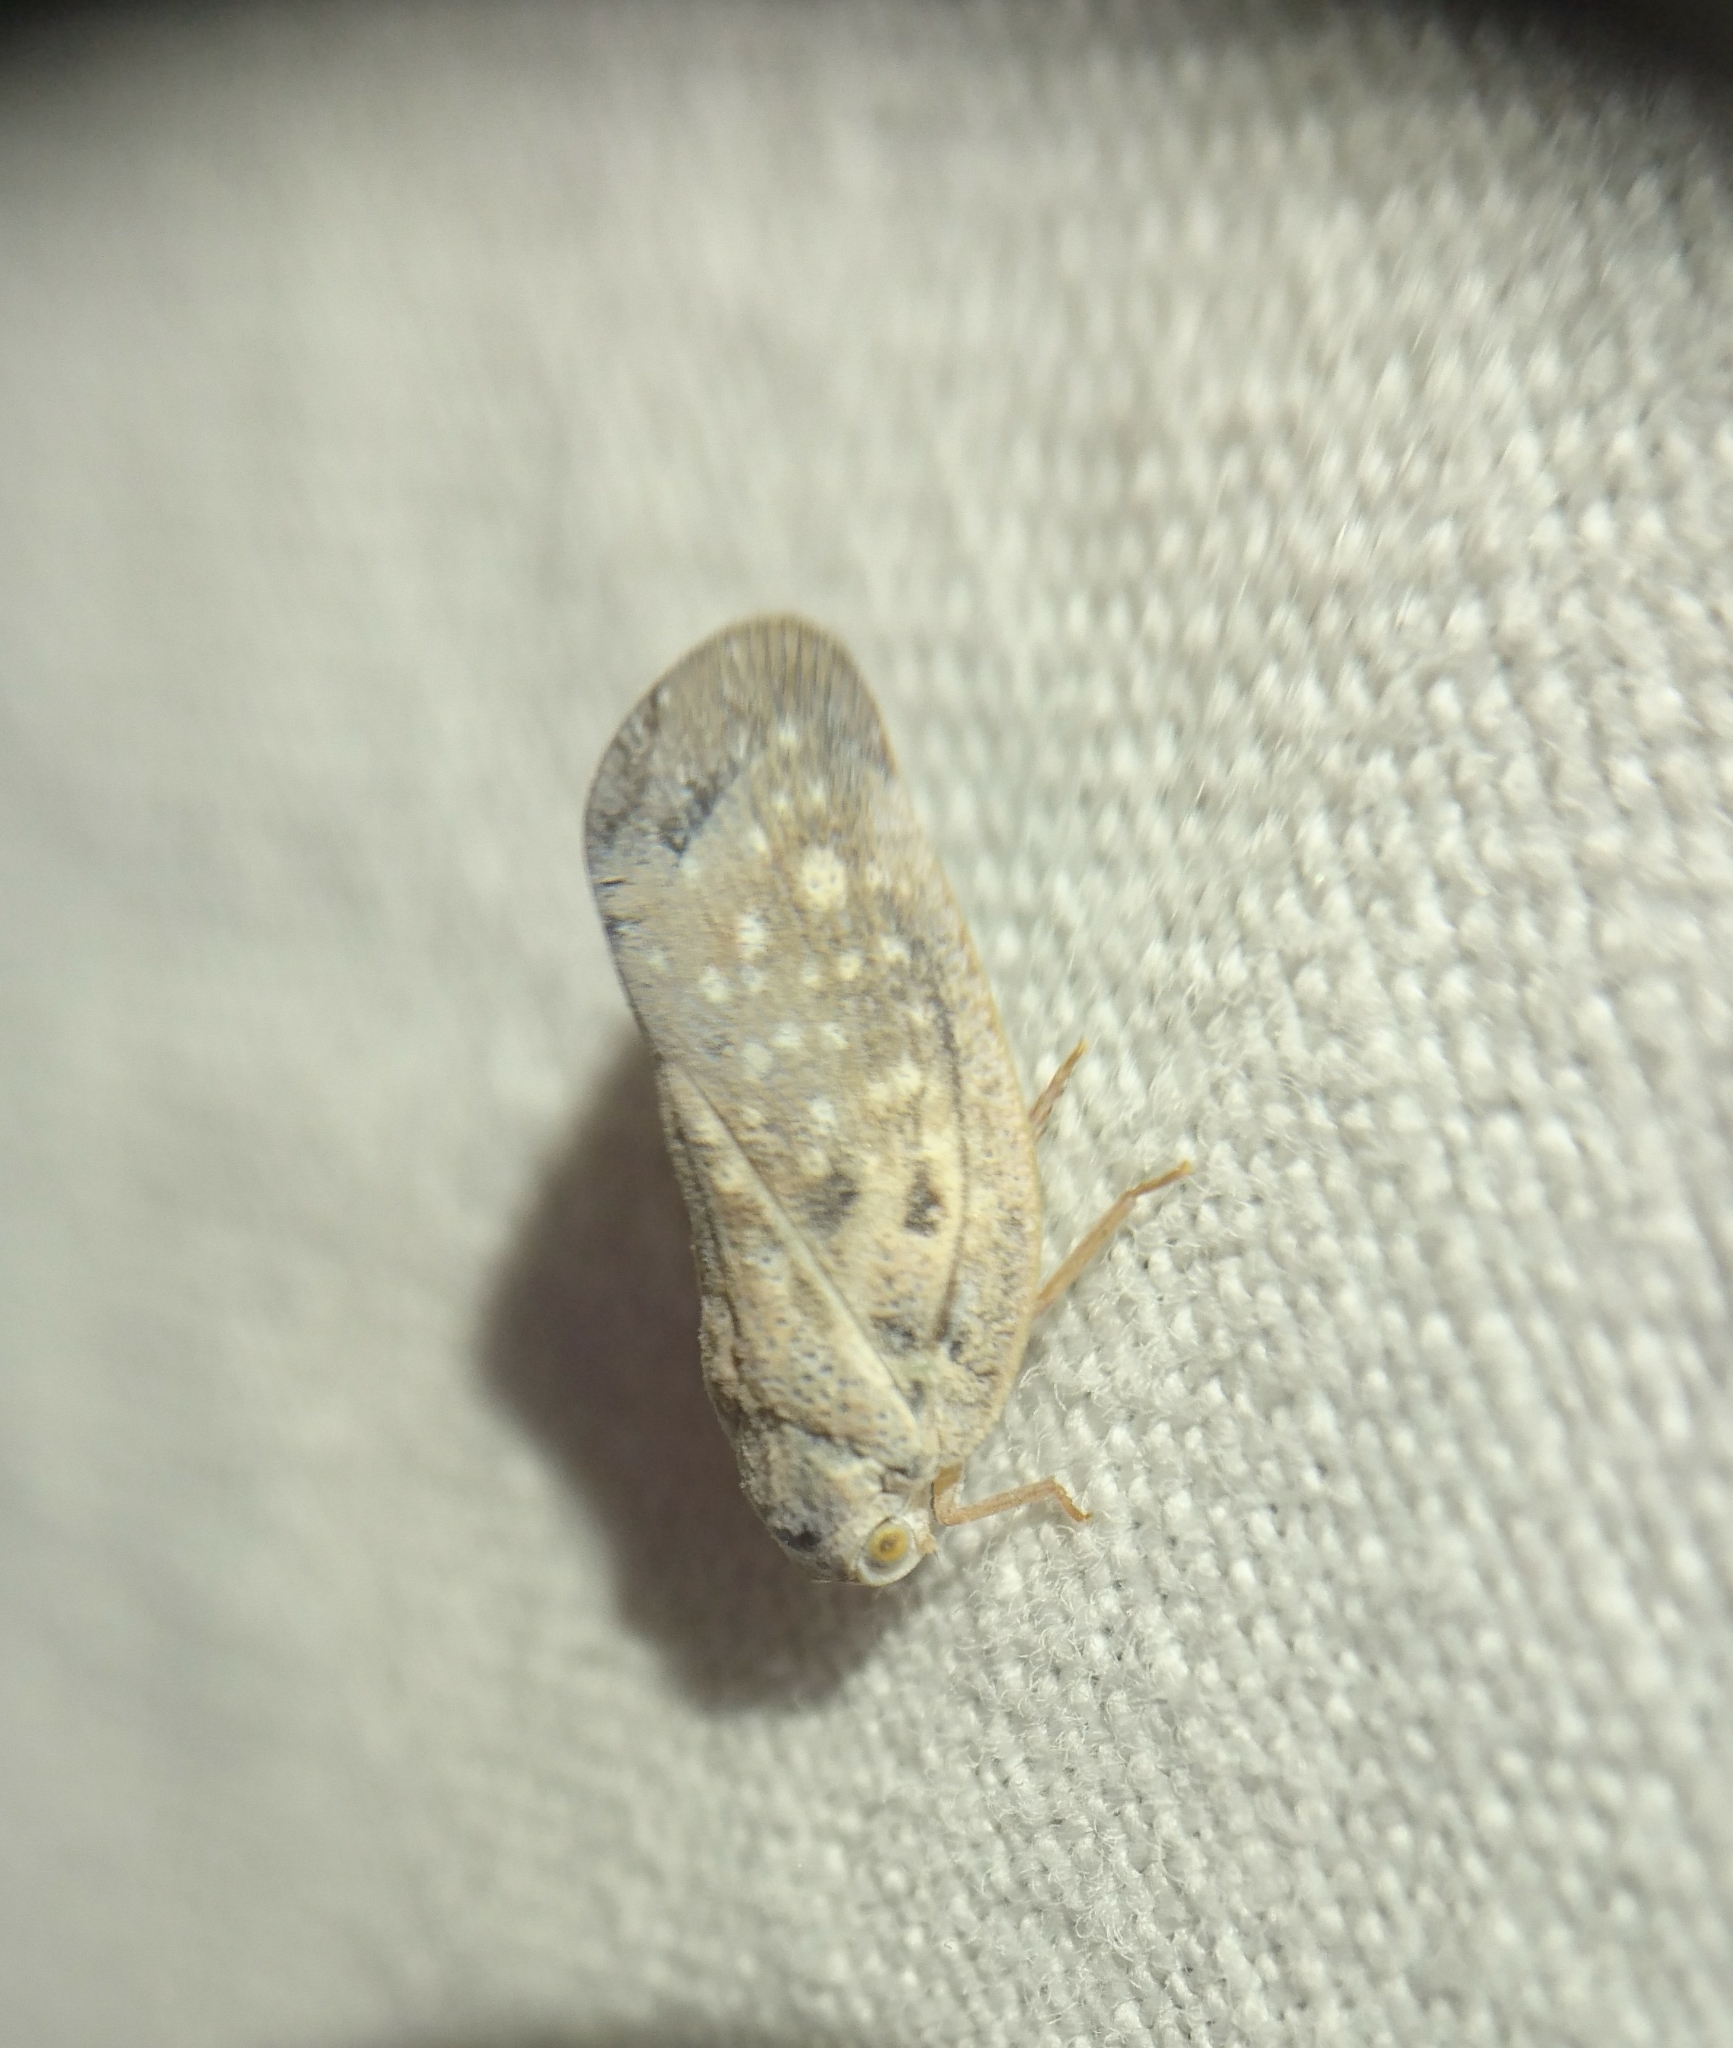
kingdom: Animalia
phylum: Arthropoda
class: Insecta
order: Hemiptera
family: Flatidae
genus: Metcalfa
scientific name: Metcalfa pruinosa
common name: Citrus flatid planthopper
